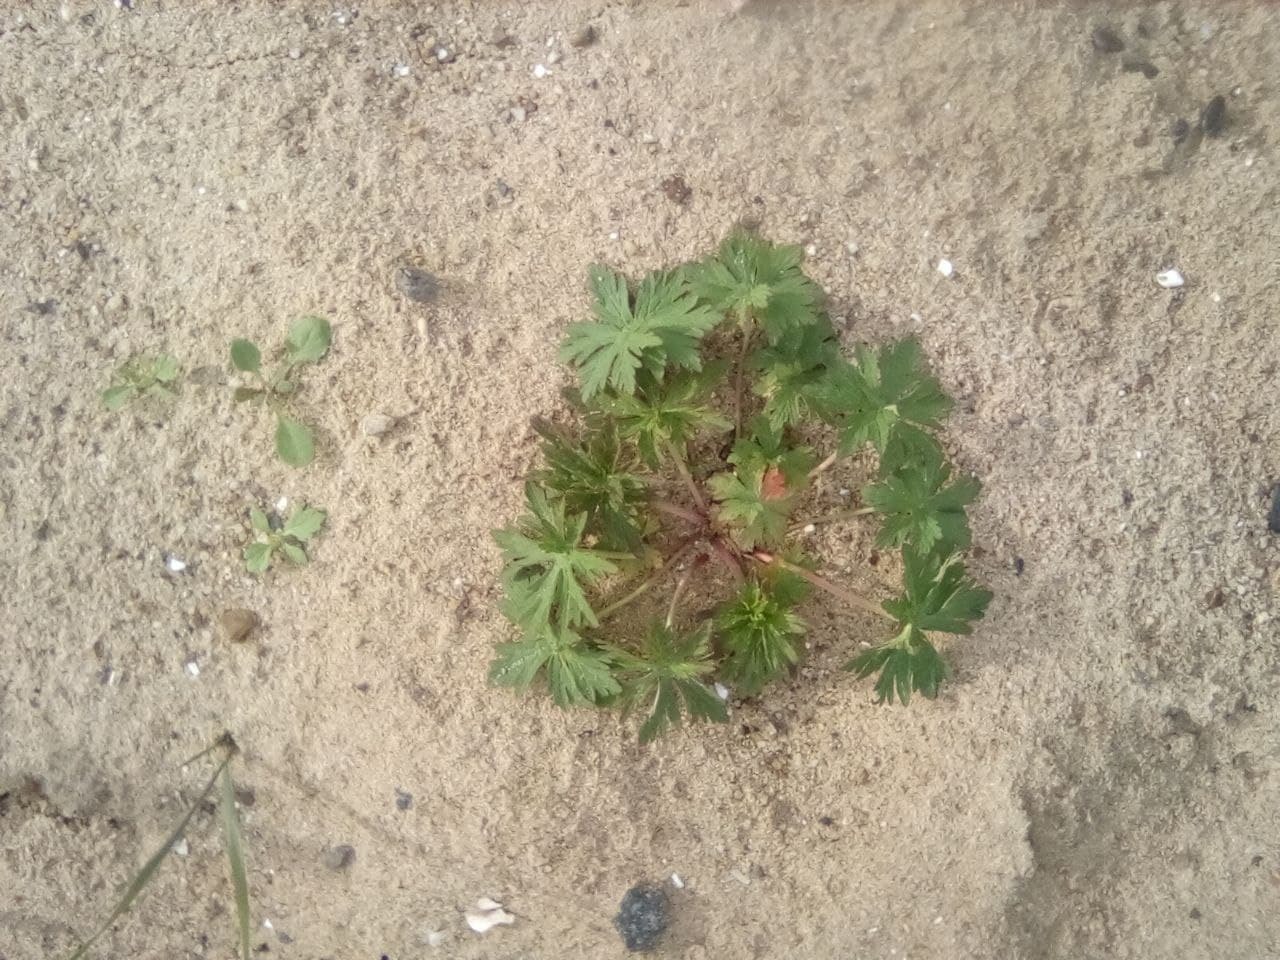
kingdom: Plantae
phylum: Tracheophyta
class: Magnoliopsida
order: Geraniales
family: Geraniaceae
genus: Geranium
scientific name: Geranium sibiricum
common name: Siberian crane's-bill
